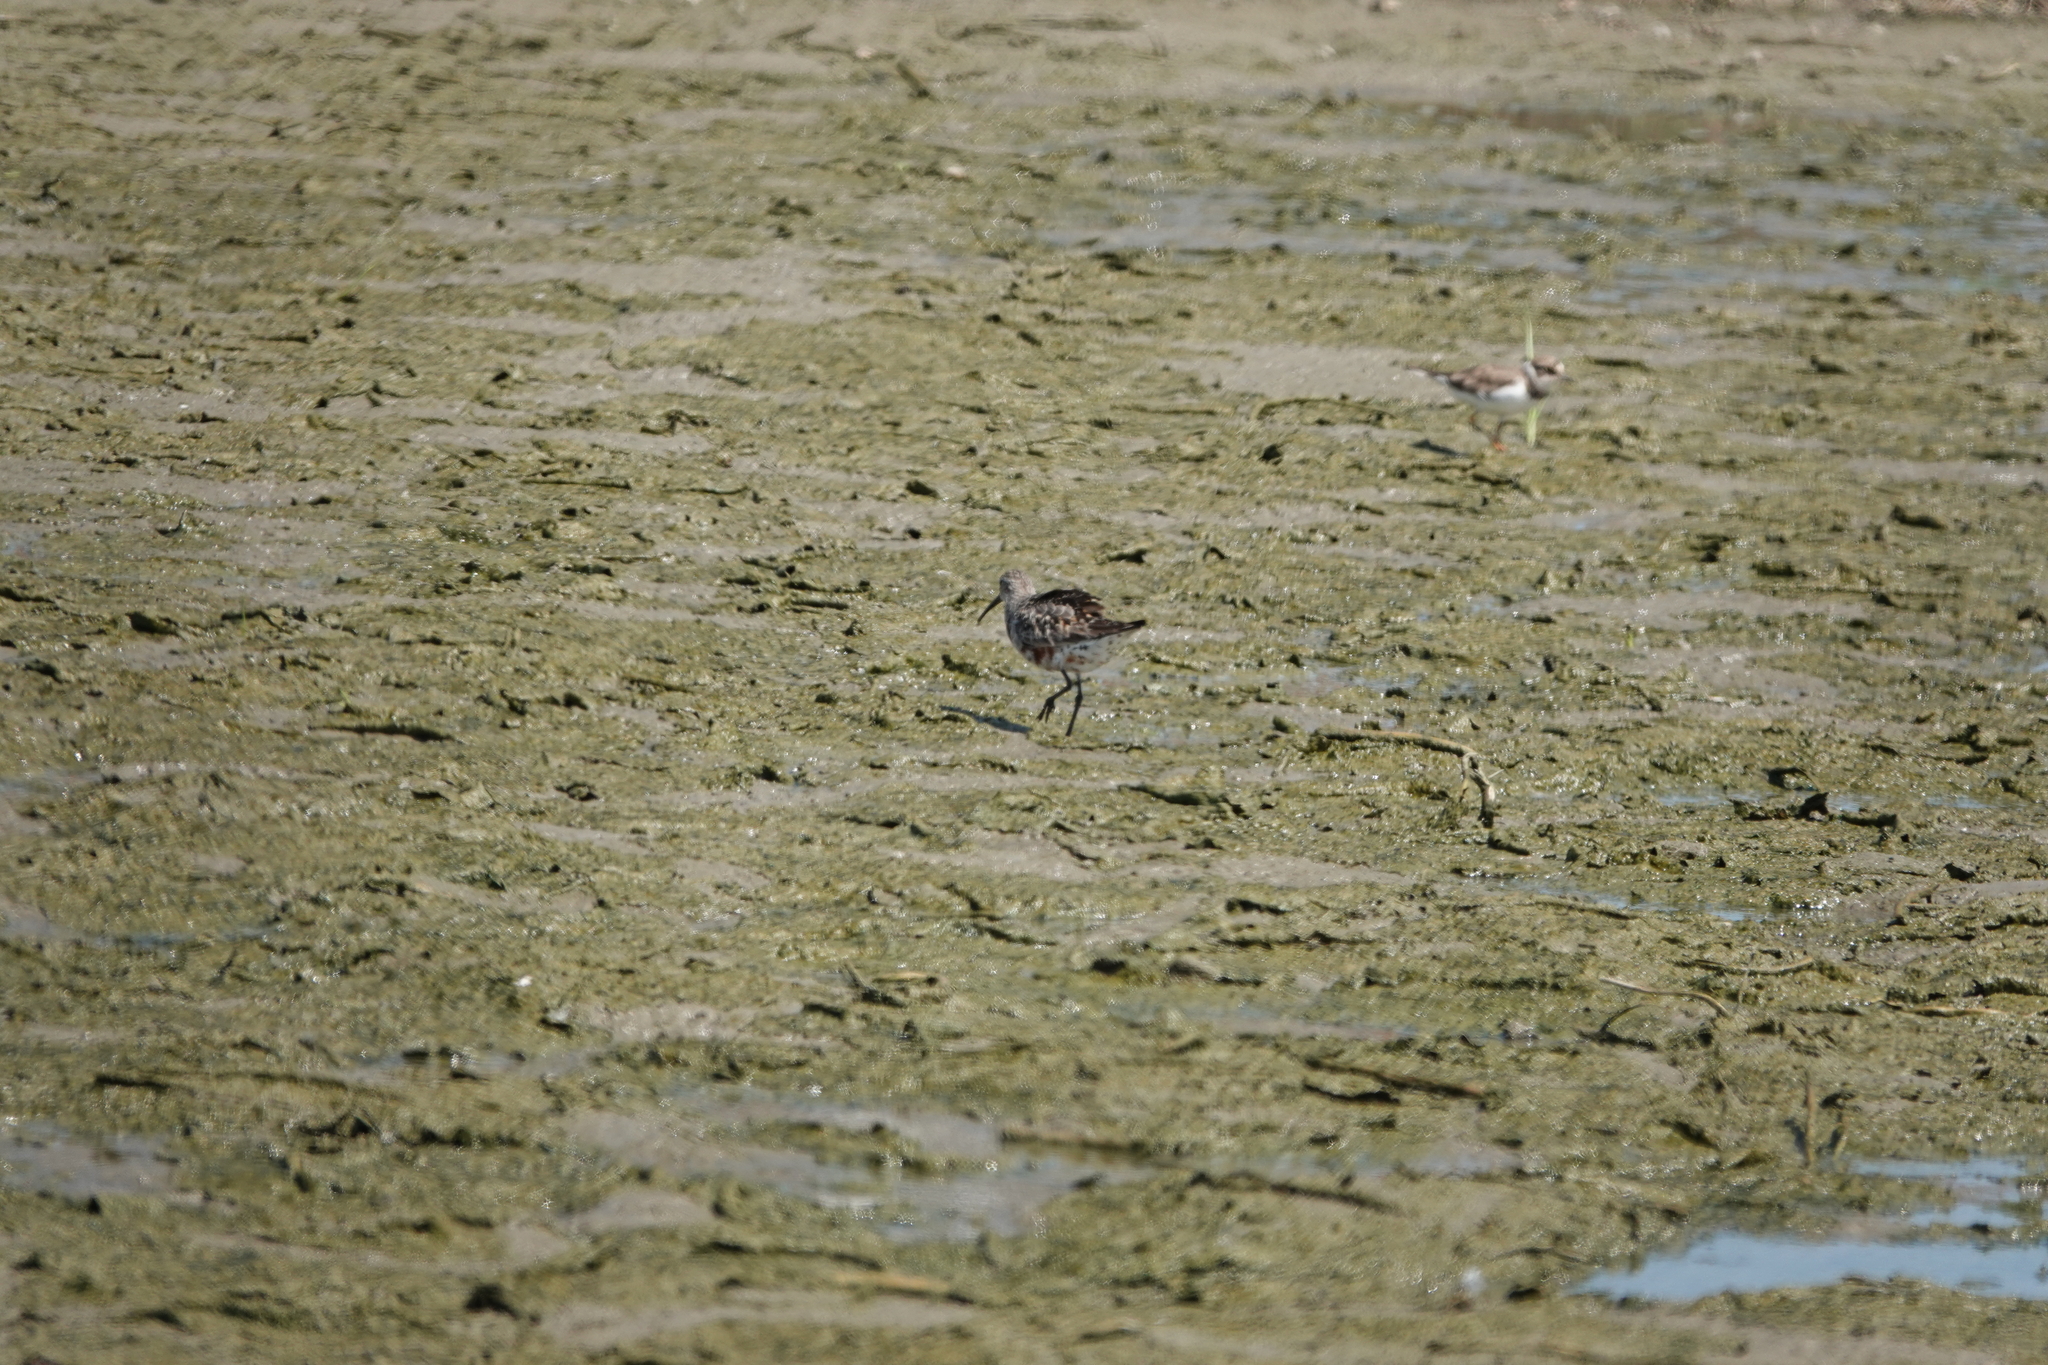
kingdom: Animalia
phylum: Chordata
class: Aves
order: Charadriiformes
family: Scolopacidae
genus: Calidris
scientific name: Calidris ferruginea
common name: Curlew sandpiper
